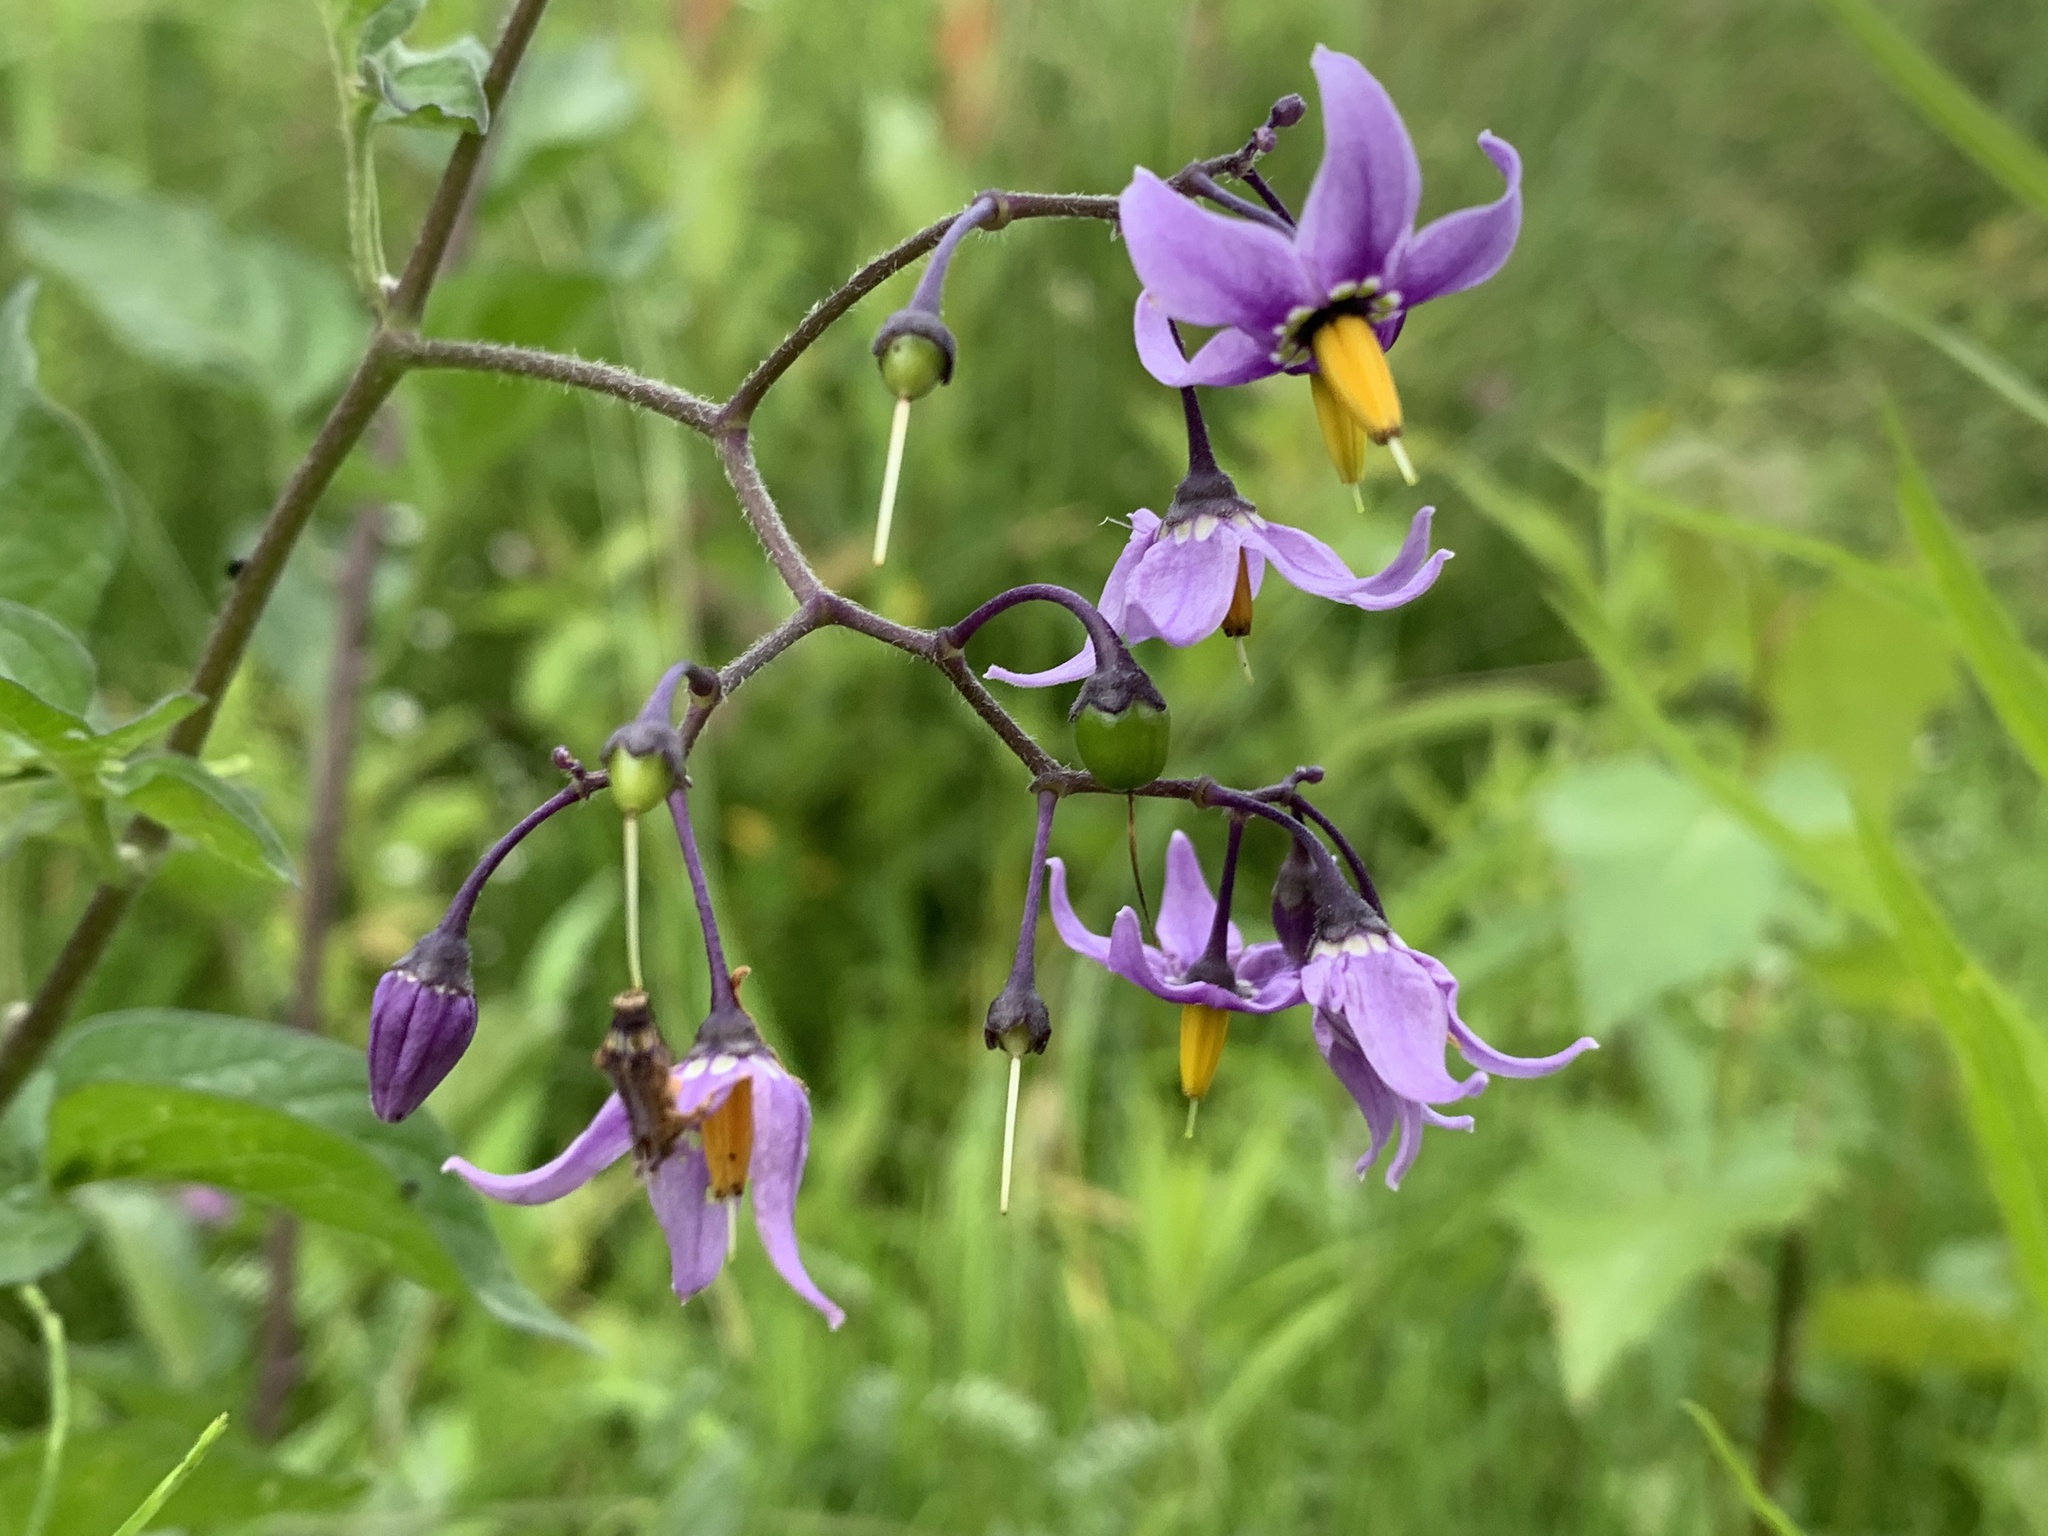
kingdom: Plantae
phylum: Tracheophyta
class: Magnoliopsida
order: Solanales
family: Solanaceae
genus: Solanum
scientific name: Solanum dulcamara
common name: Climbing nightshade
